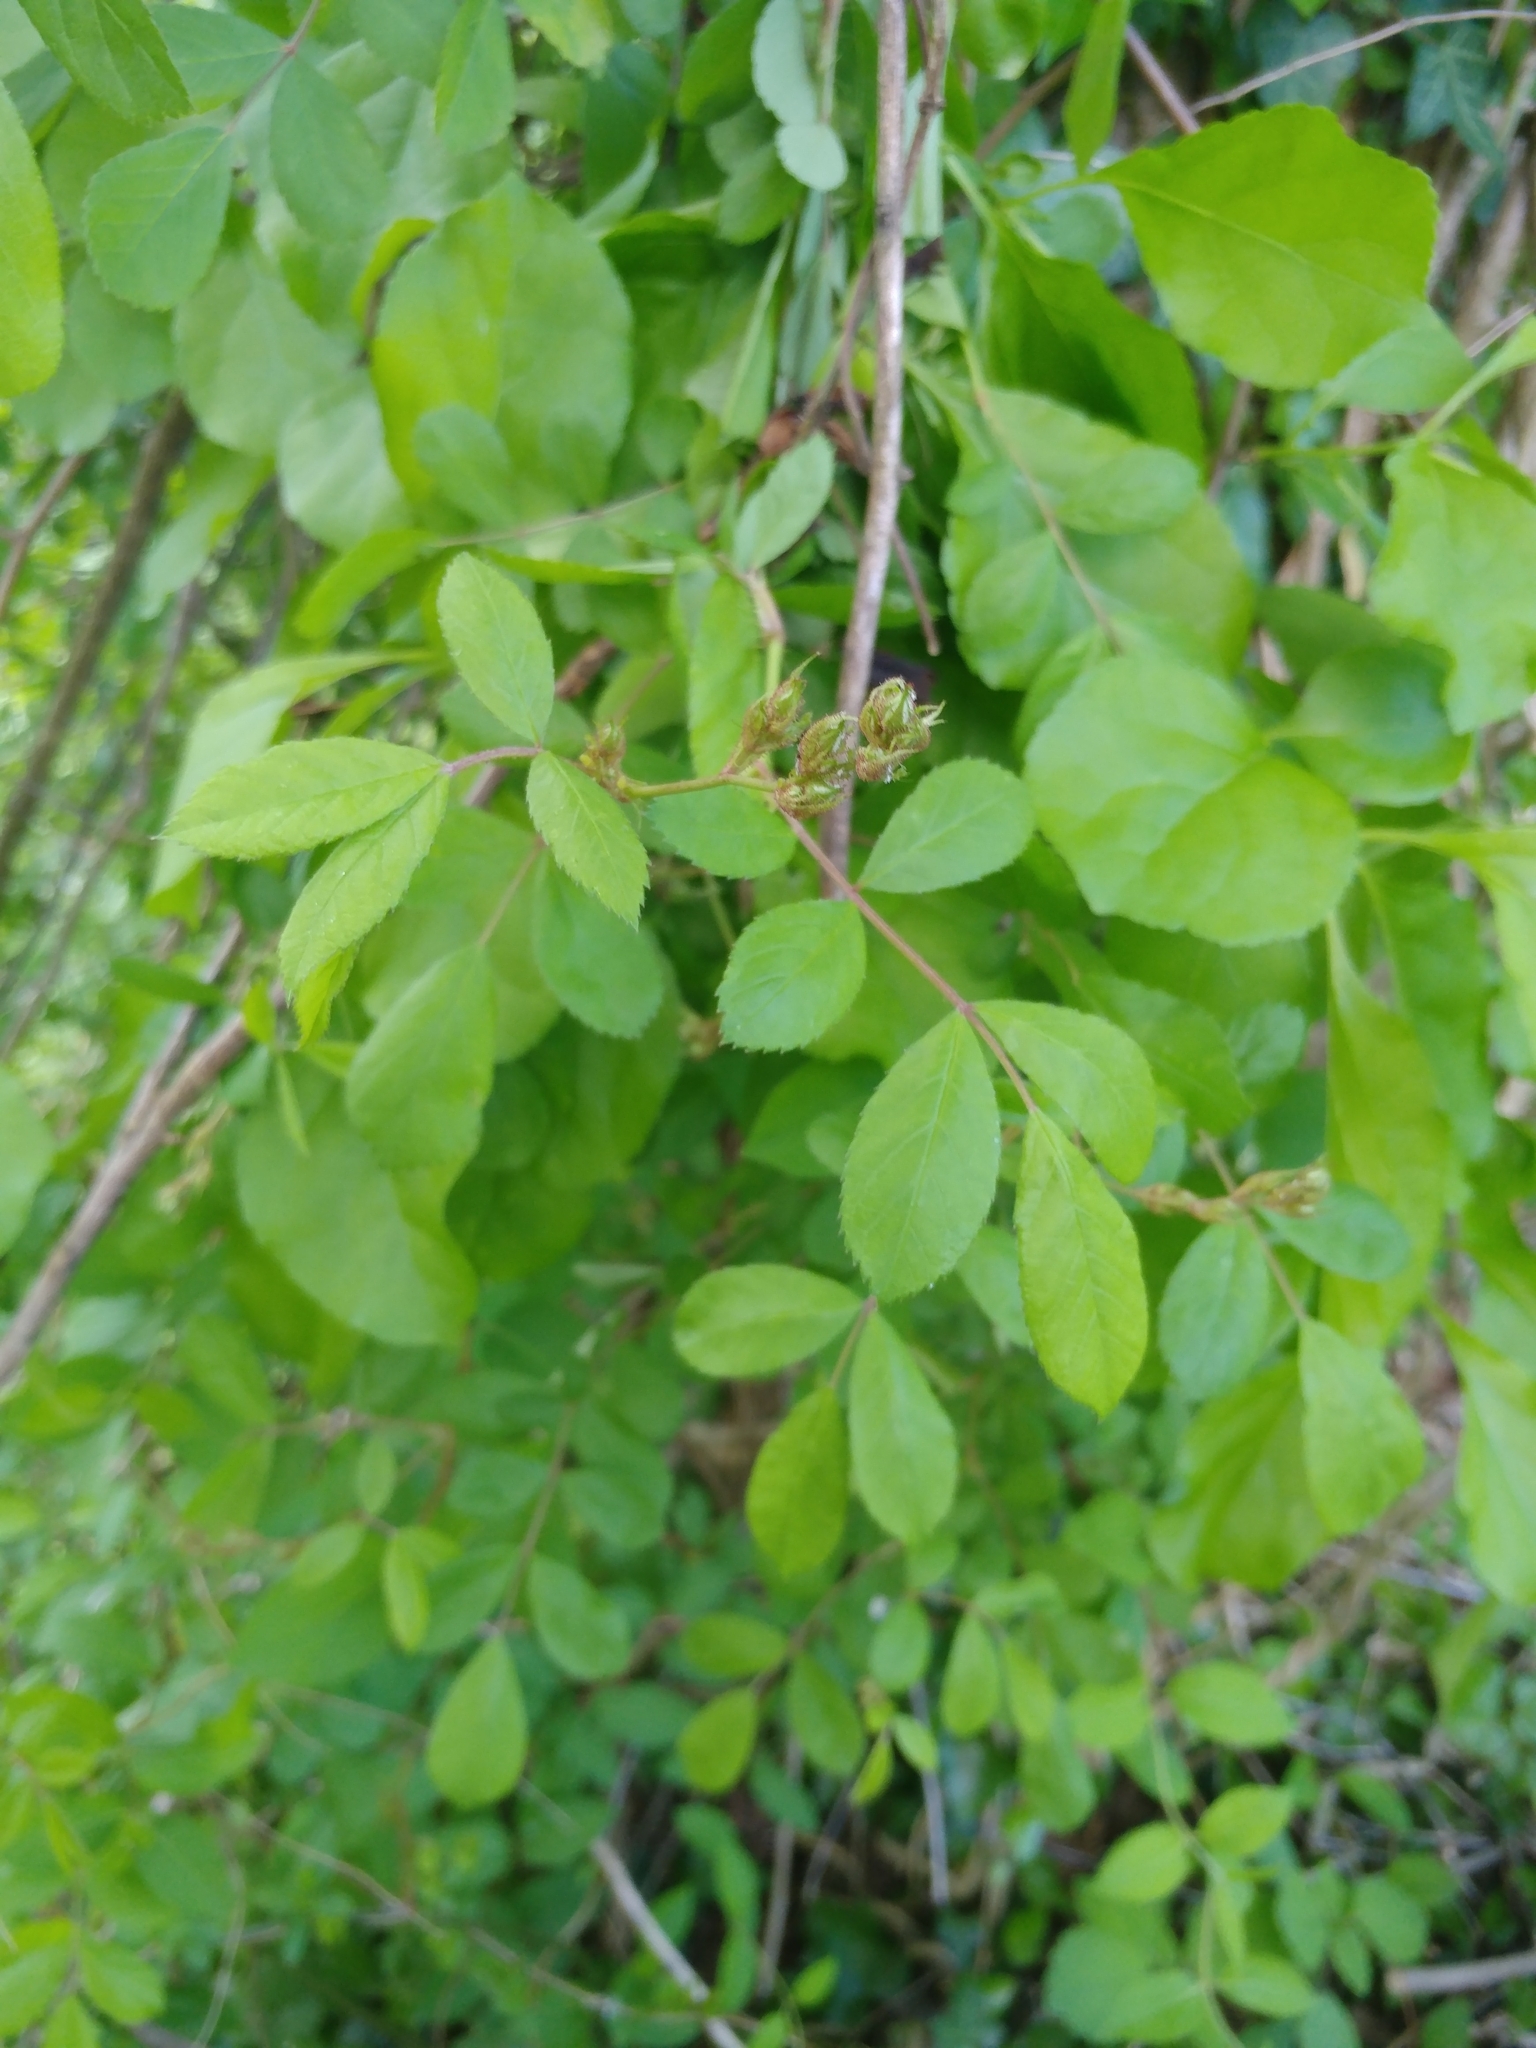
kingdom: Plantae
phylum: Tracheophyta
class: Magnoliopsida
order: Rosales
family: Rosaceae
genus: Rosa
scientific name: Rosa multiflora
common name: Multiflora rose
